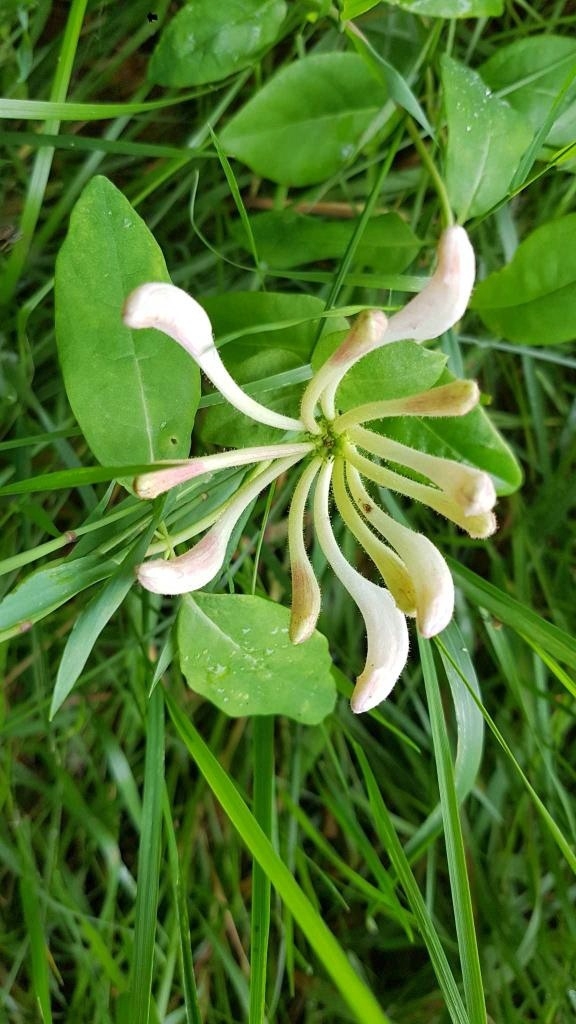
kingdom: Plantae
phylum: Tracheophyta
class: Magnoliopsida
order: Dipsacales
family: Caprifoliaceae
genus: Lonicera
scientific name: Lonicera periclymenum
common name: European honeysuckle
